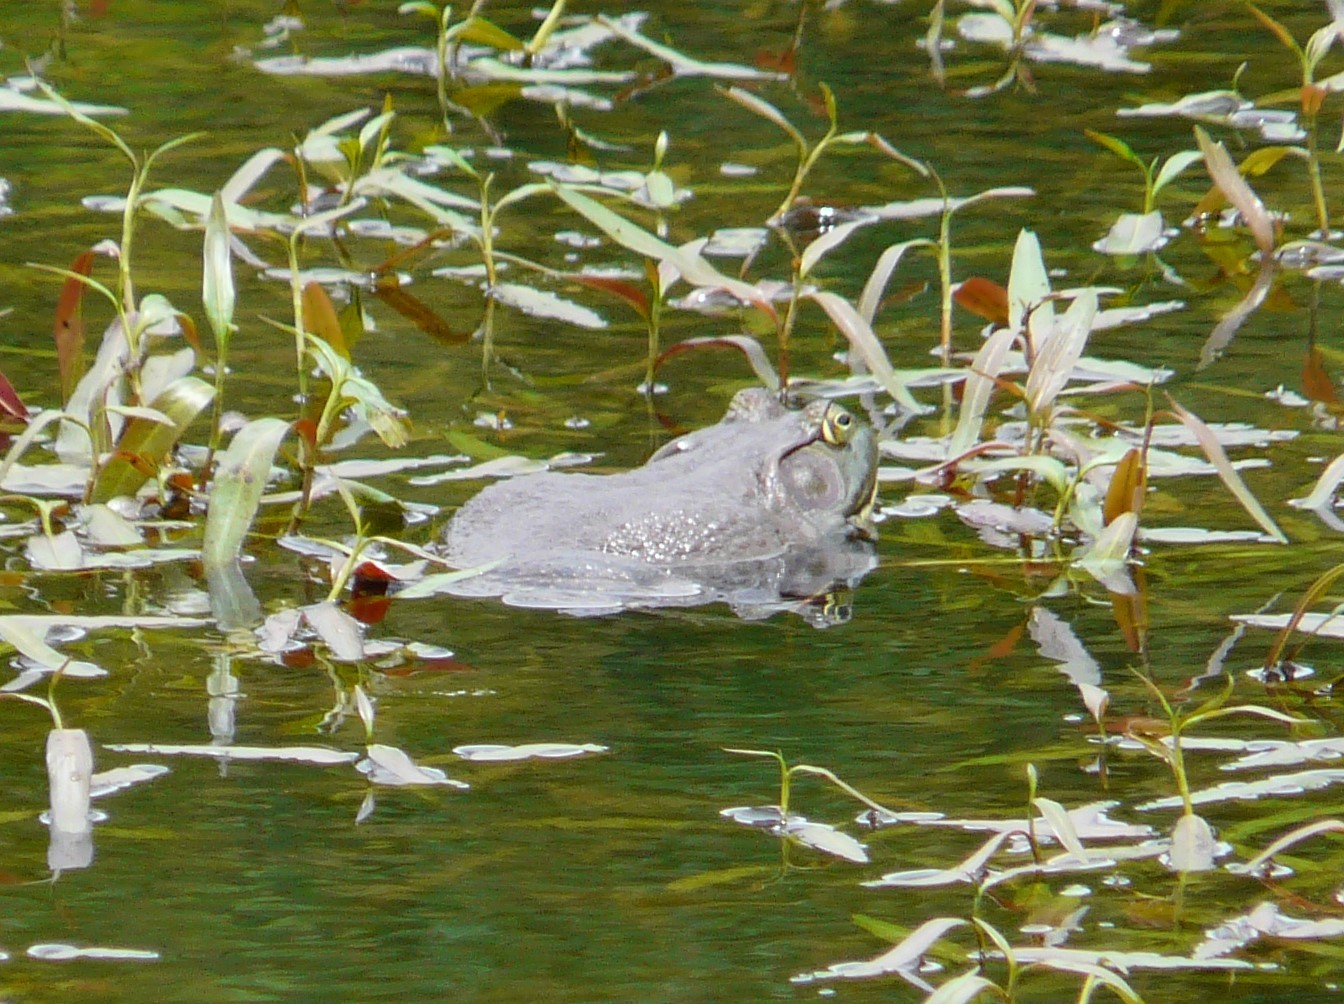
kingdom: Animalia
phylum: Chordata
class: Amphibia
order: Anura
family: Ranidae
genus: Lithobates
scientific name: Lithobates catesbeianus
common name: American bullfrog
